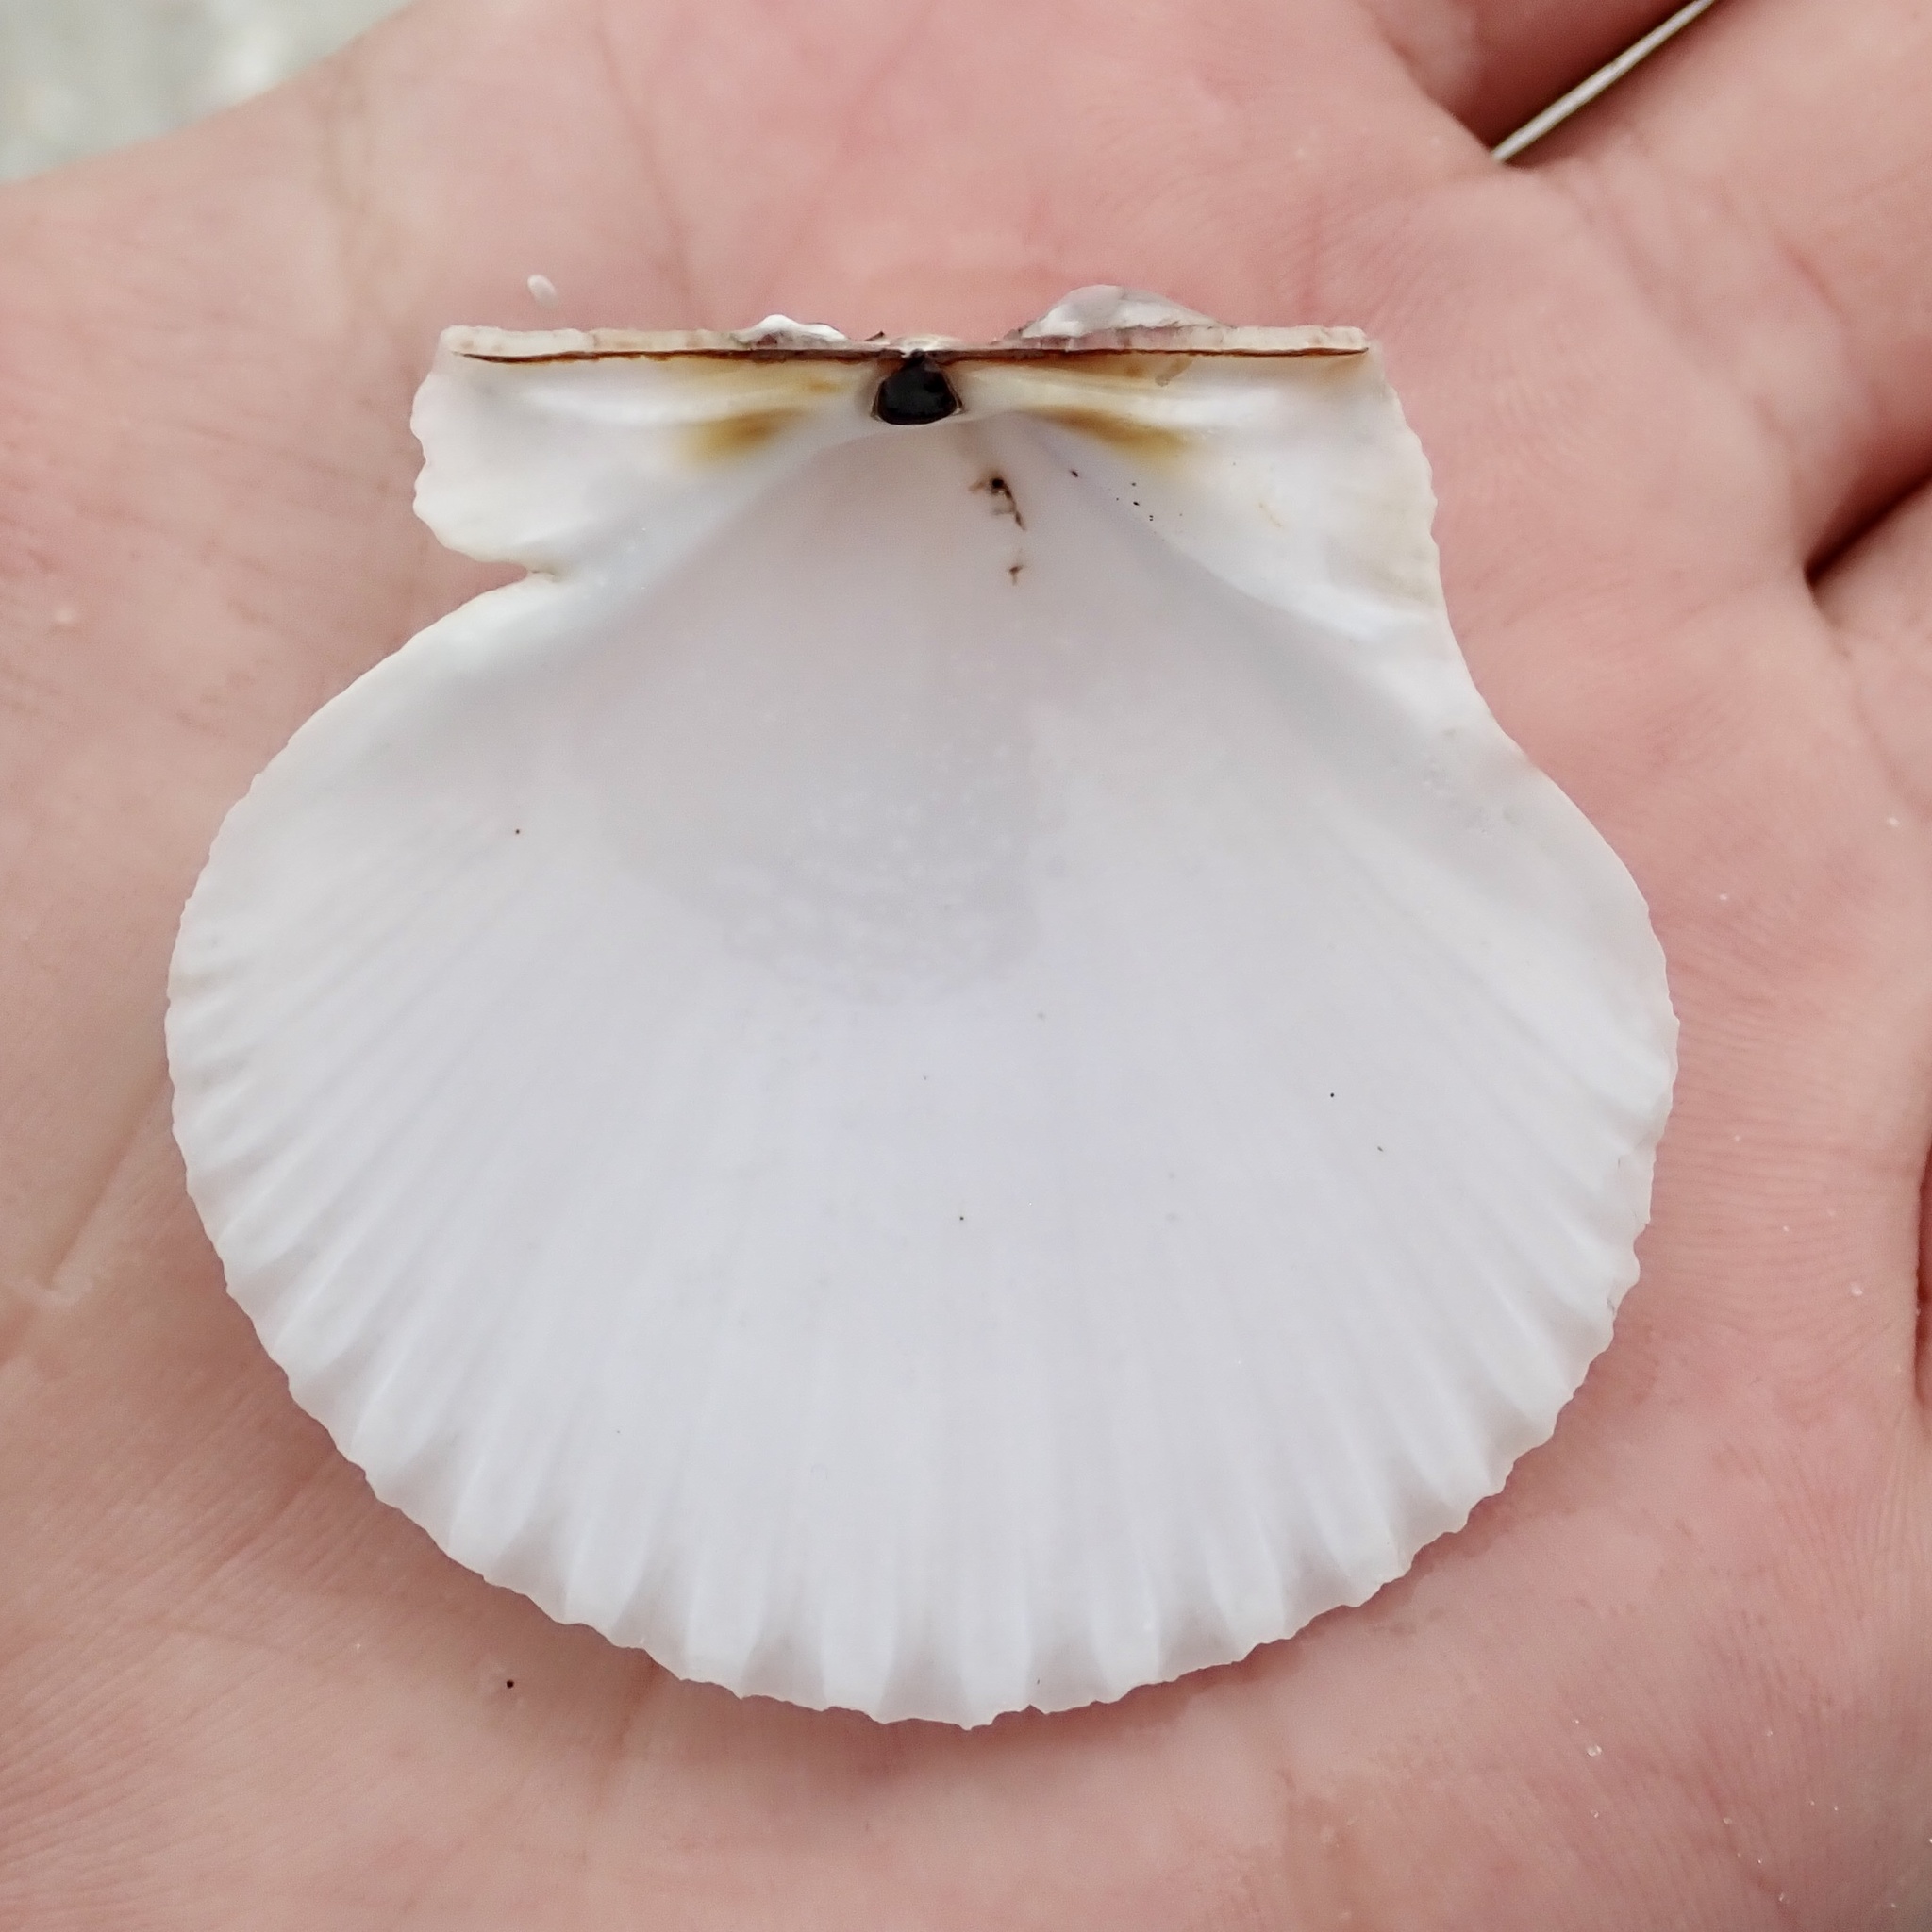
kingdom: Animalia
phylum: Mollusca
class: Bivalvia
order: Pectinida
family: Pectinidae
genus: Argopecten
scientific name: Argopecten gibbus
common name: Atlantic calico scallop
